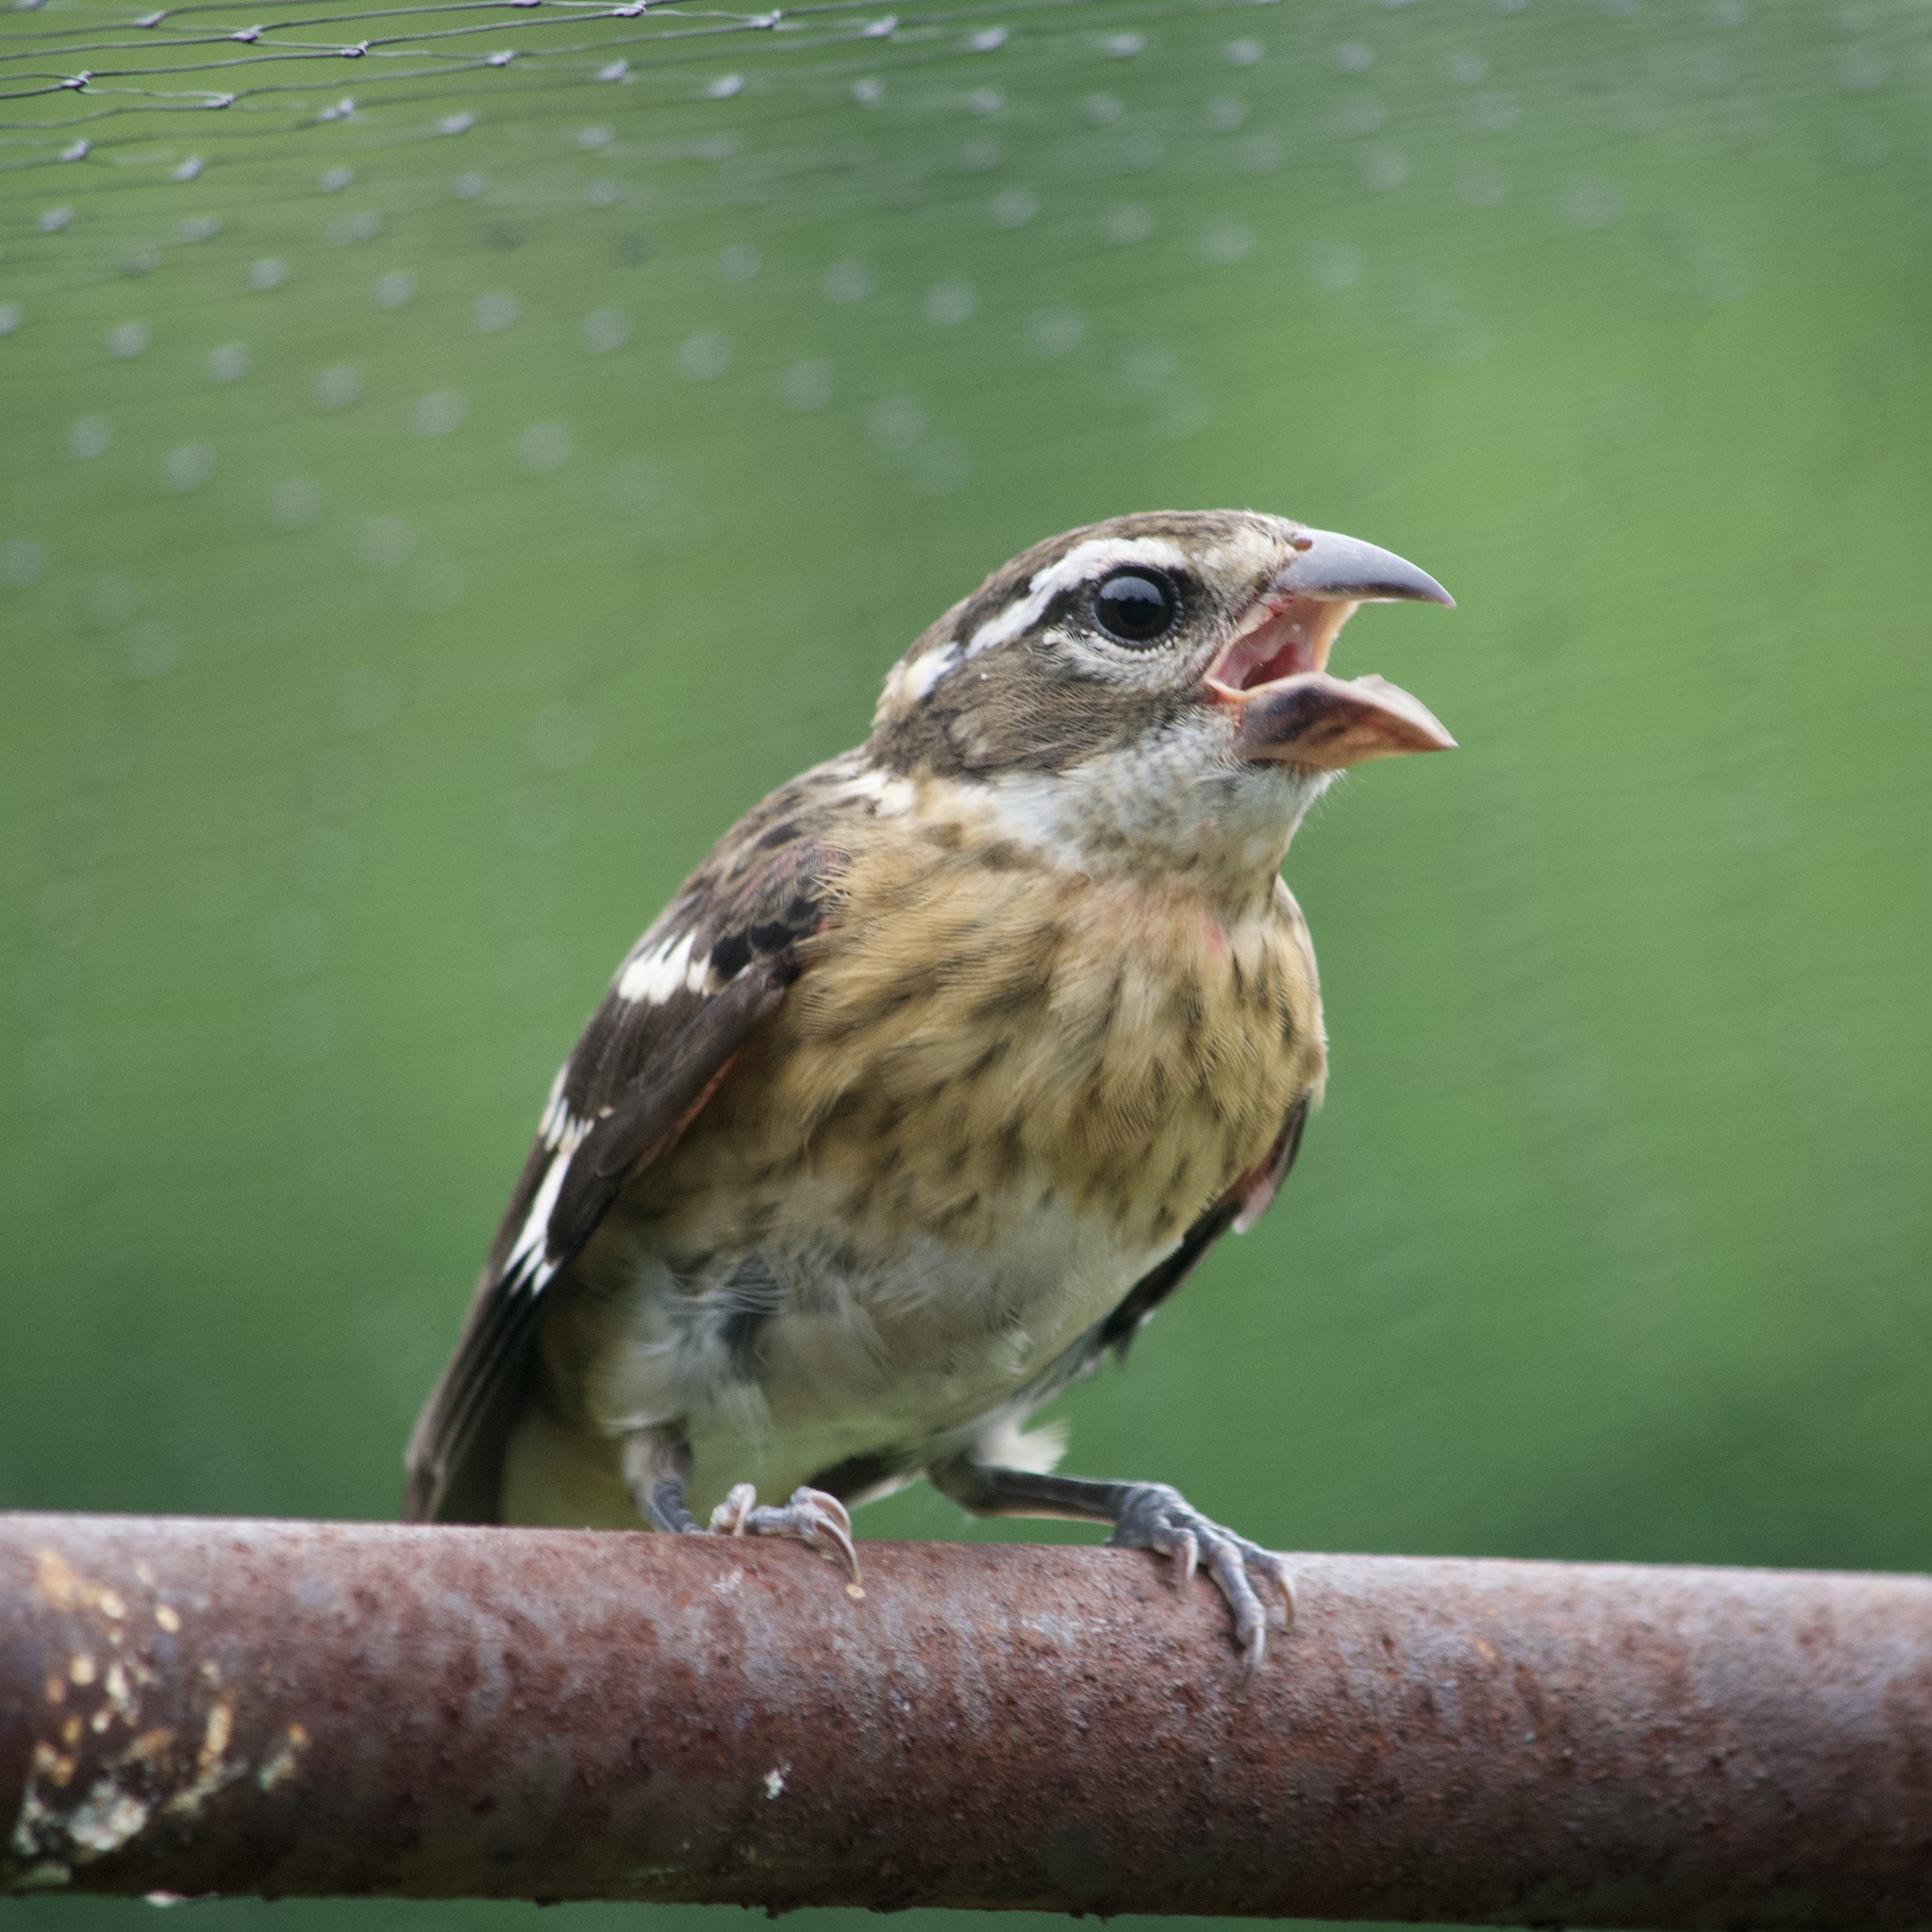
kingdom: Animalia
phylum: Chordata
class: Aves
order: Passeriformes
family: Cardinalidae
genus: Pheucticus
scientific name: Pheucticus ludovicianus
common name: Rose-breasted grosbeak
